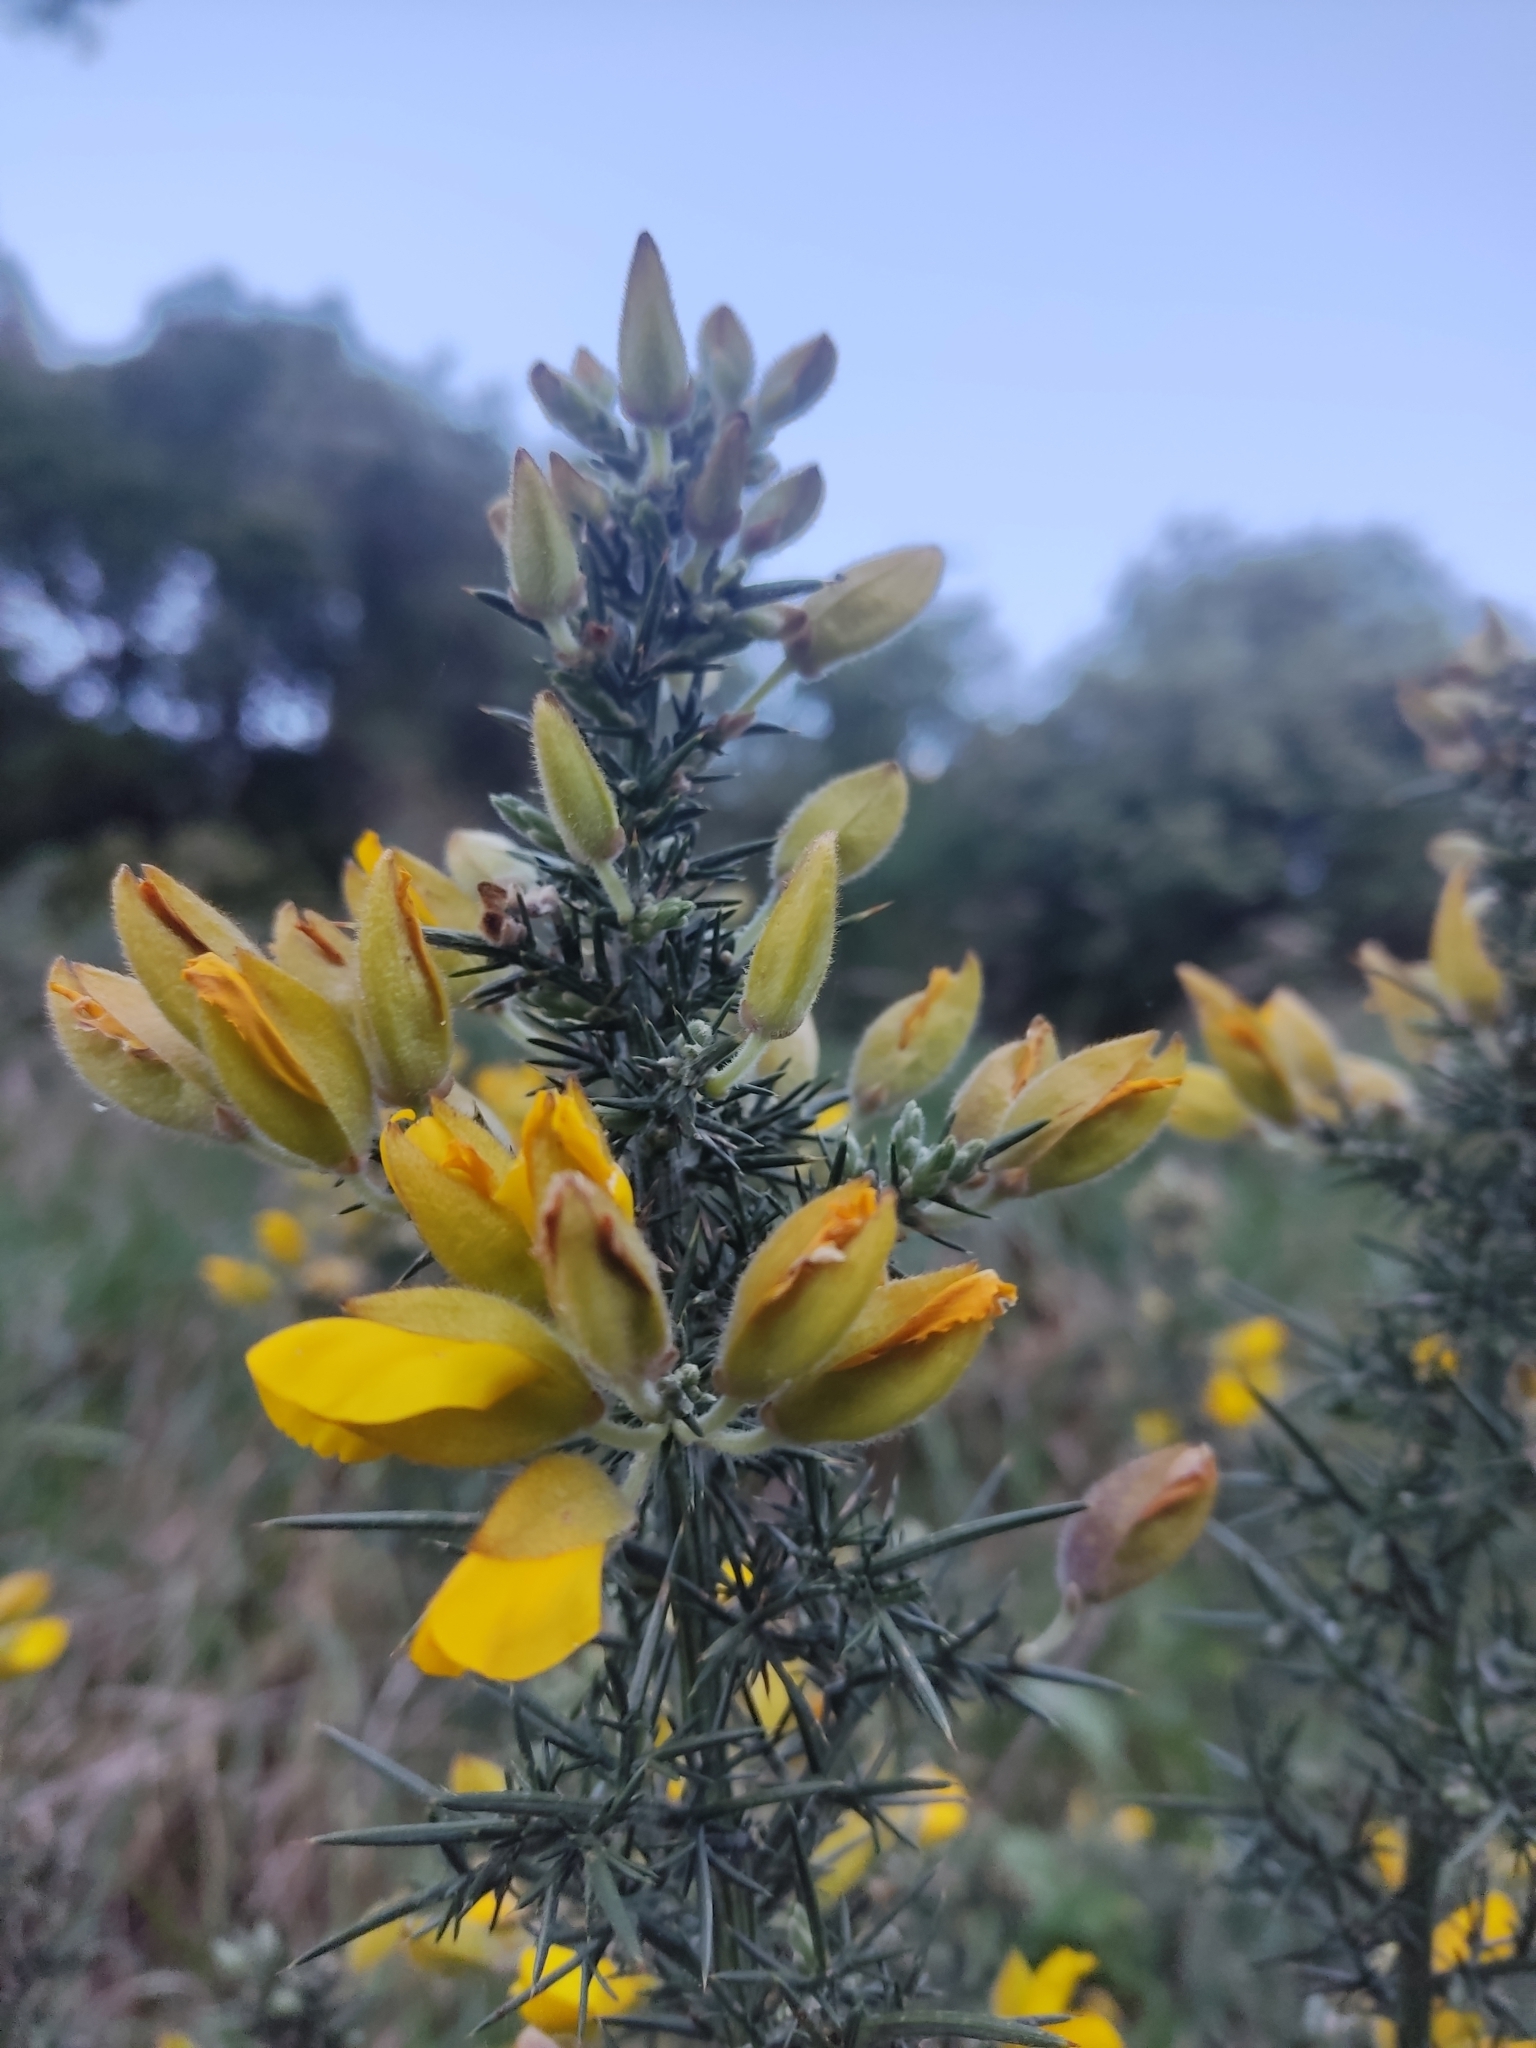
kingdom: Plantae
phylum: Tracheophyta
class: Magnoliopsida
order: Fabales
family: Fabaceae
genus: Ulex
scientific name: Ulex europaeus
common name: Common gorse
